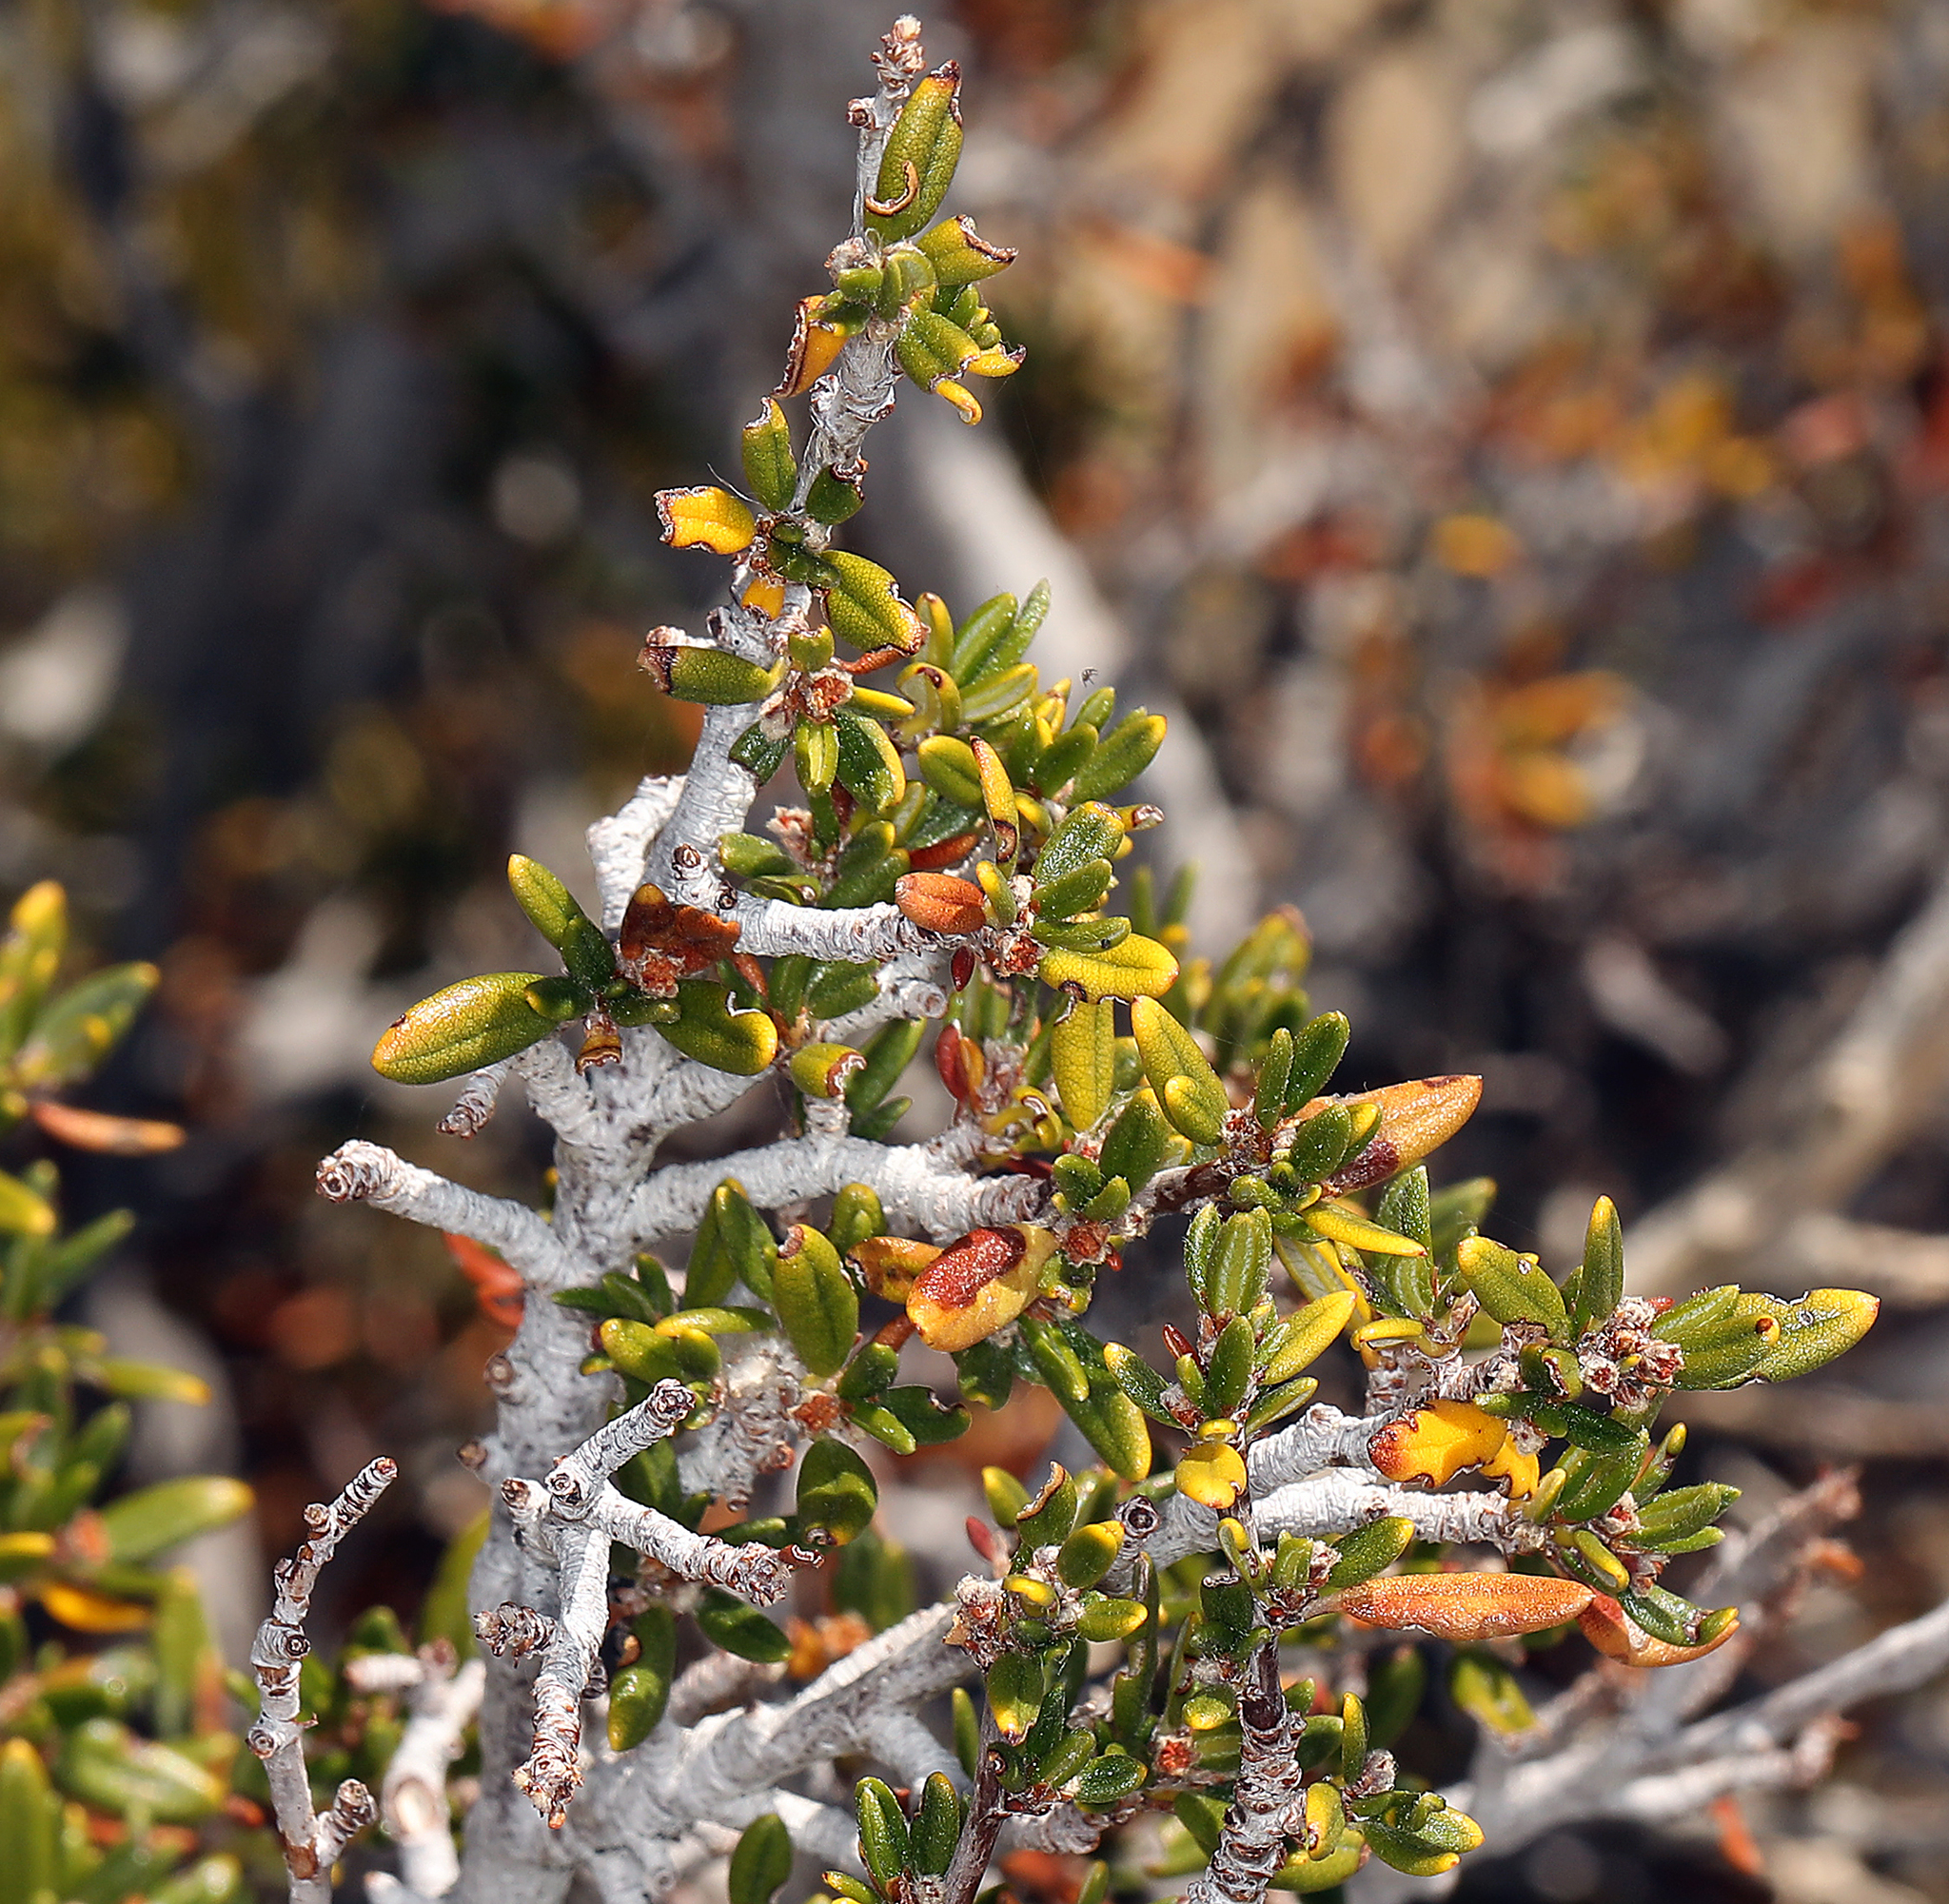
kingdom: Plantae
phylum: Tracheophyta
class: Magnoliopsida
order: Rosales
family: Rosaceae
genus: Cercocarpus
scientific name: Cercocarpus ledifolius
